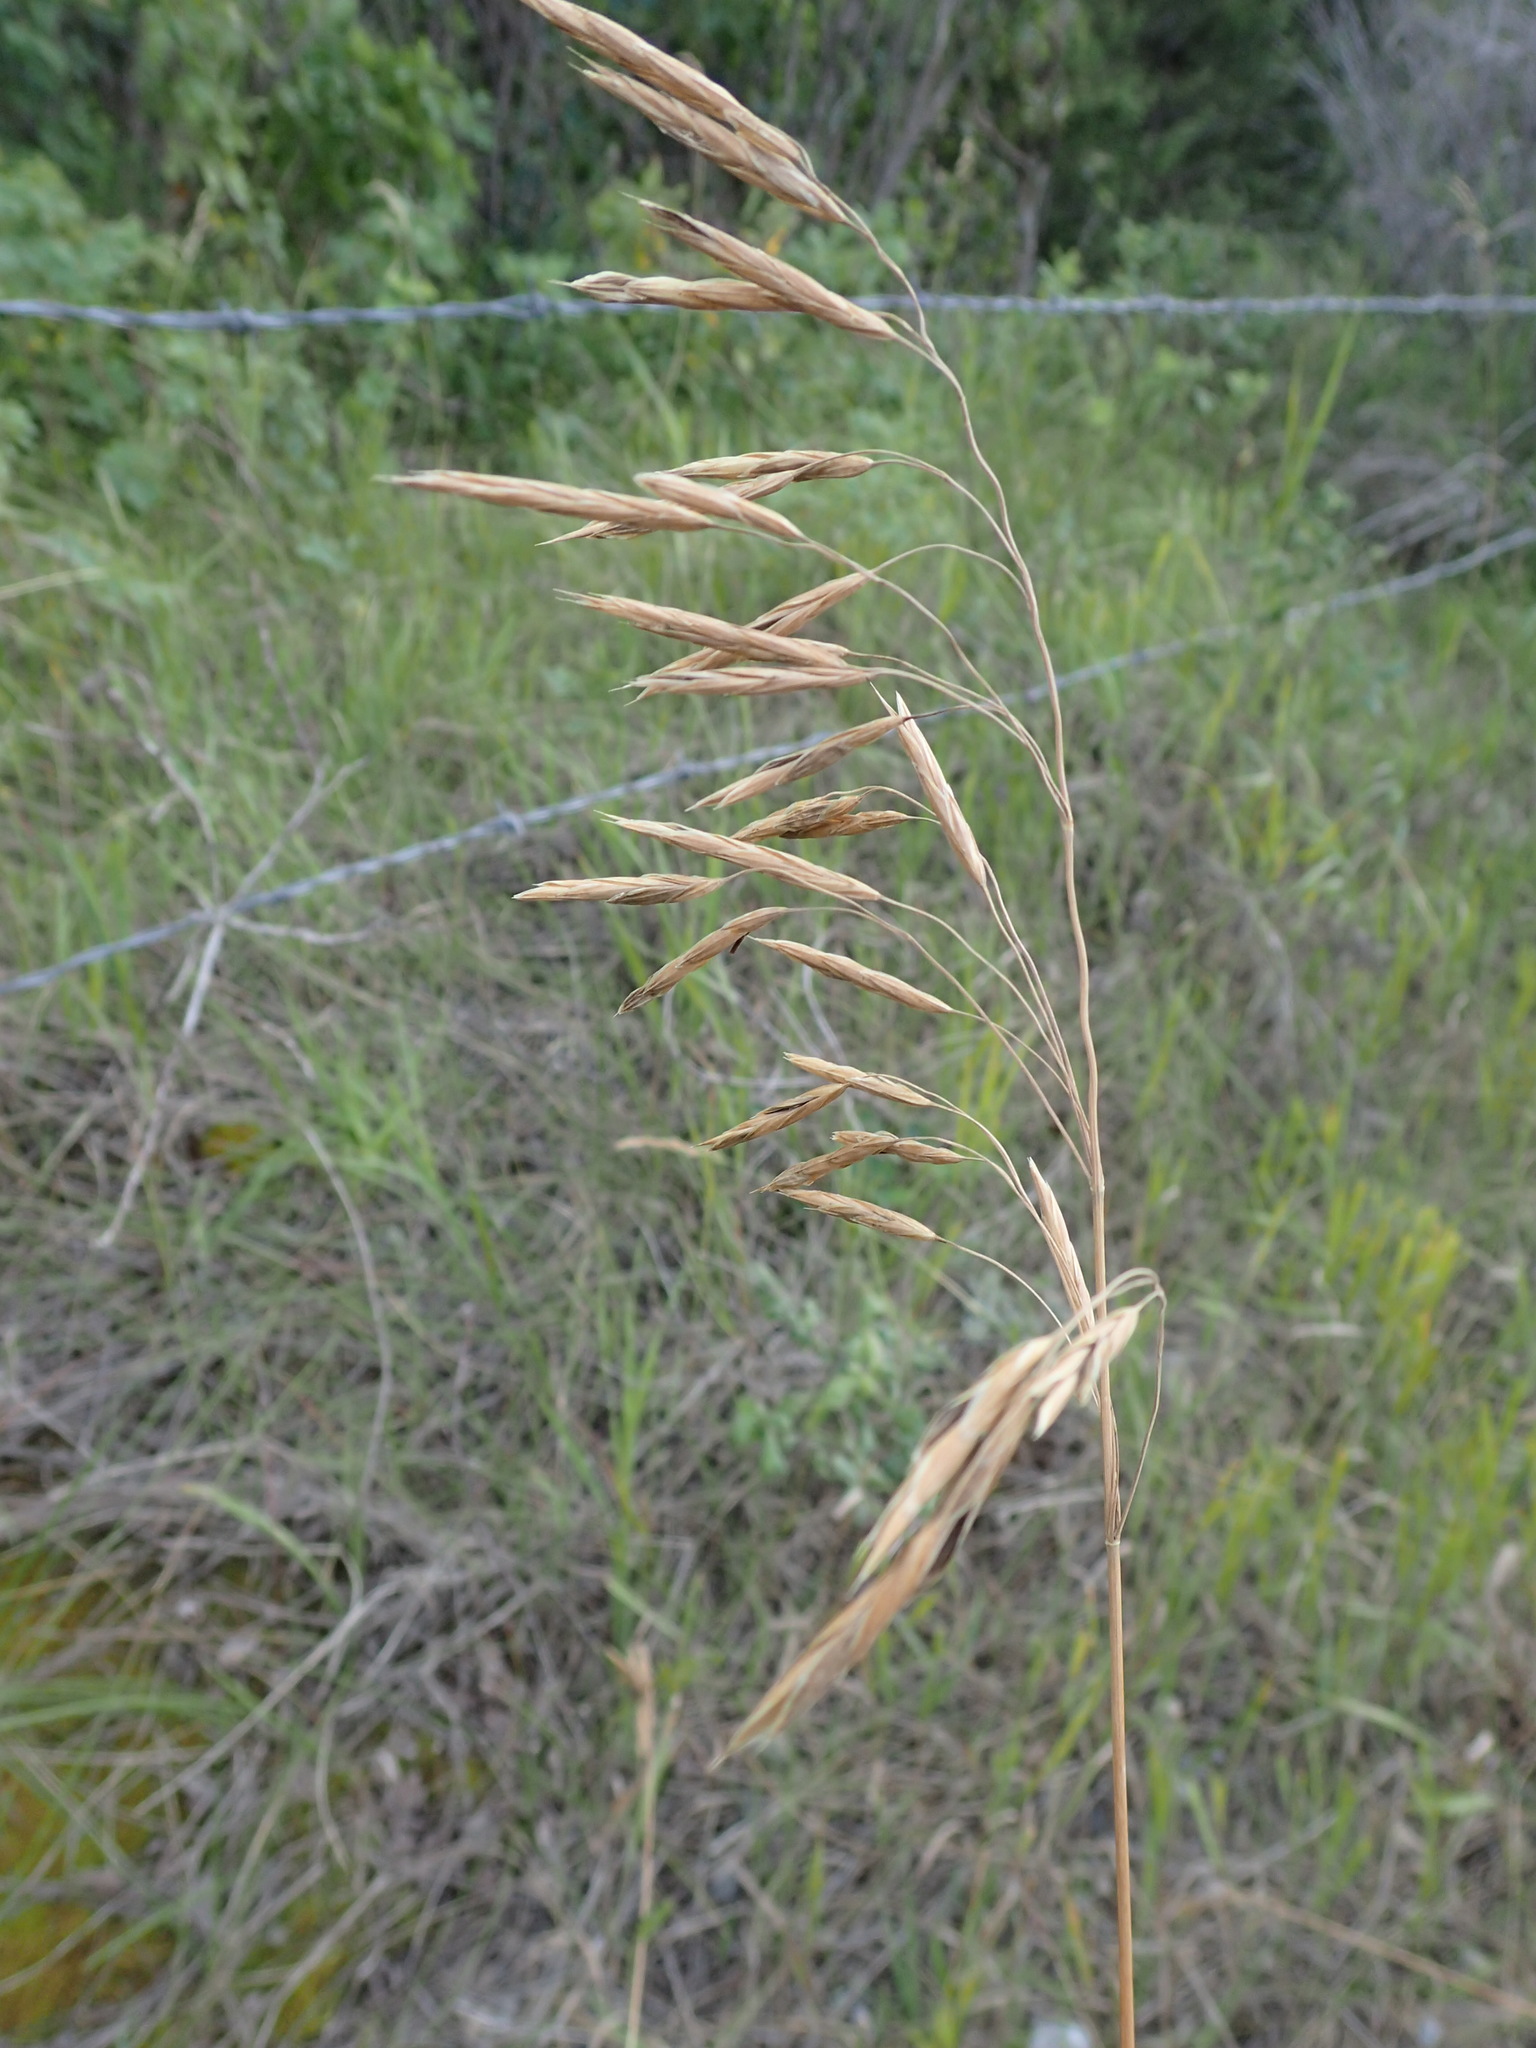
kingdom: Plantae
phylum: Tracheophyta
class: Liliopsida
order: Poales
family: Poaceae
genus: Bromus
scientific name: Bromus inermis
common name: Smooth brome
